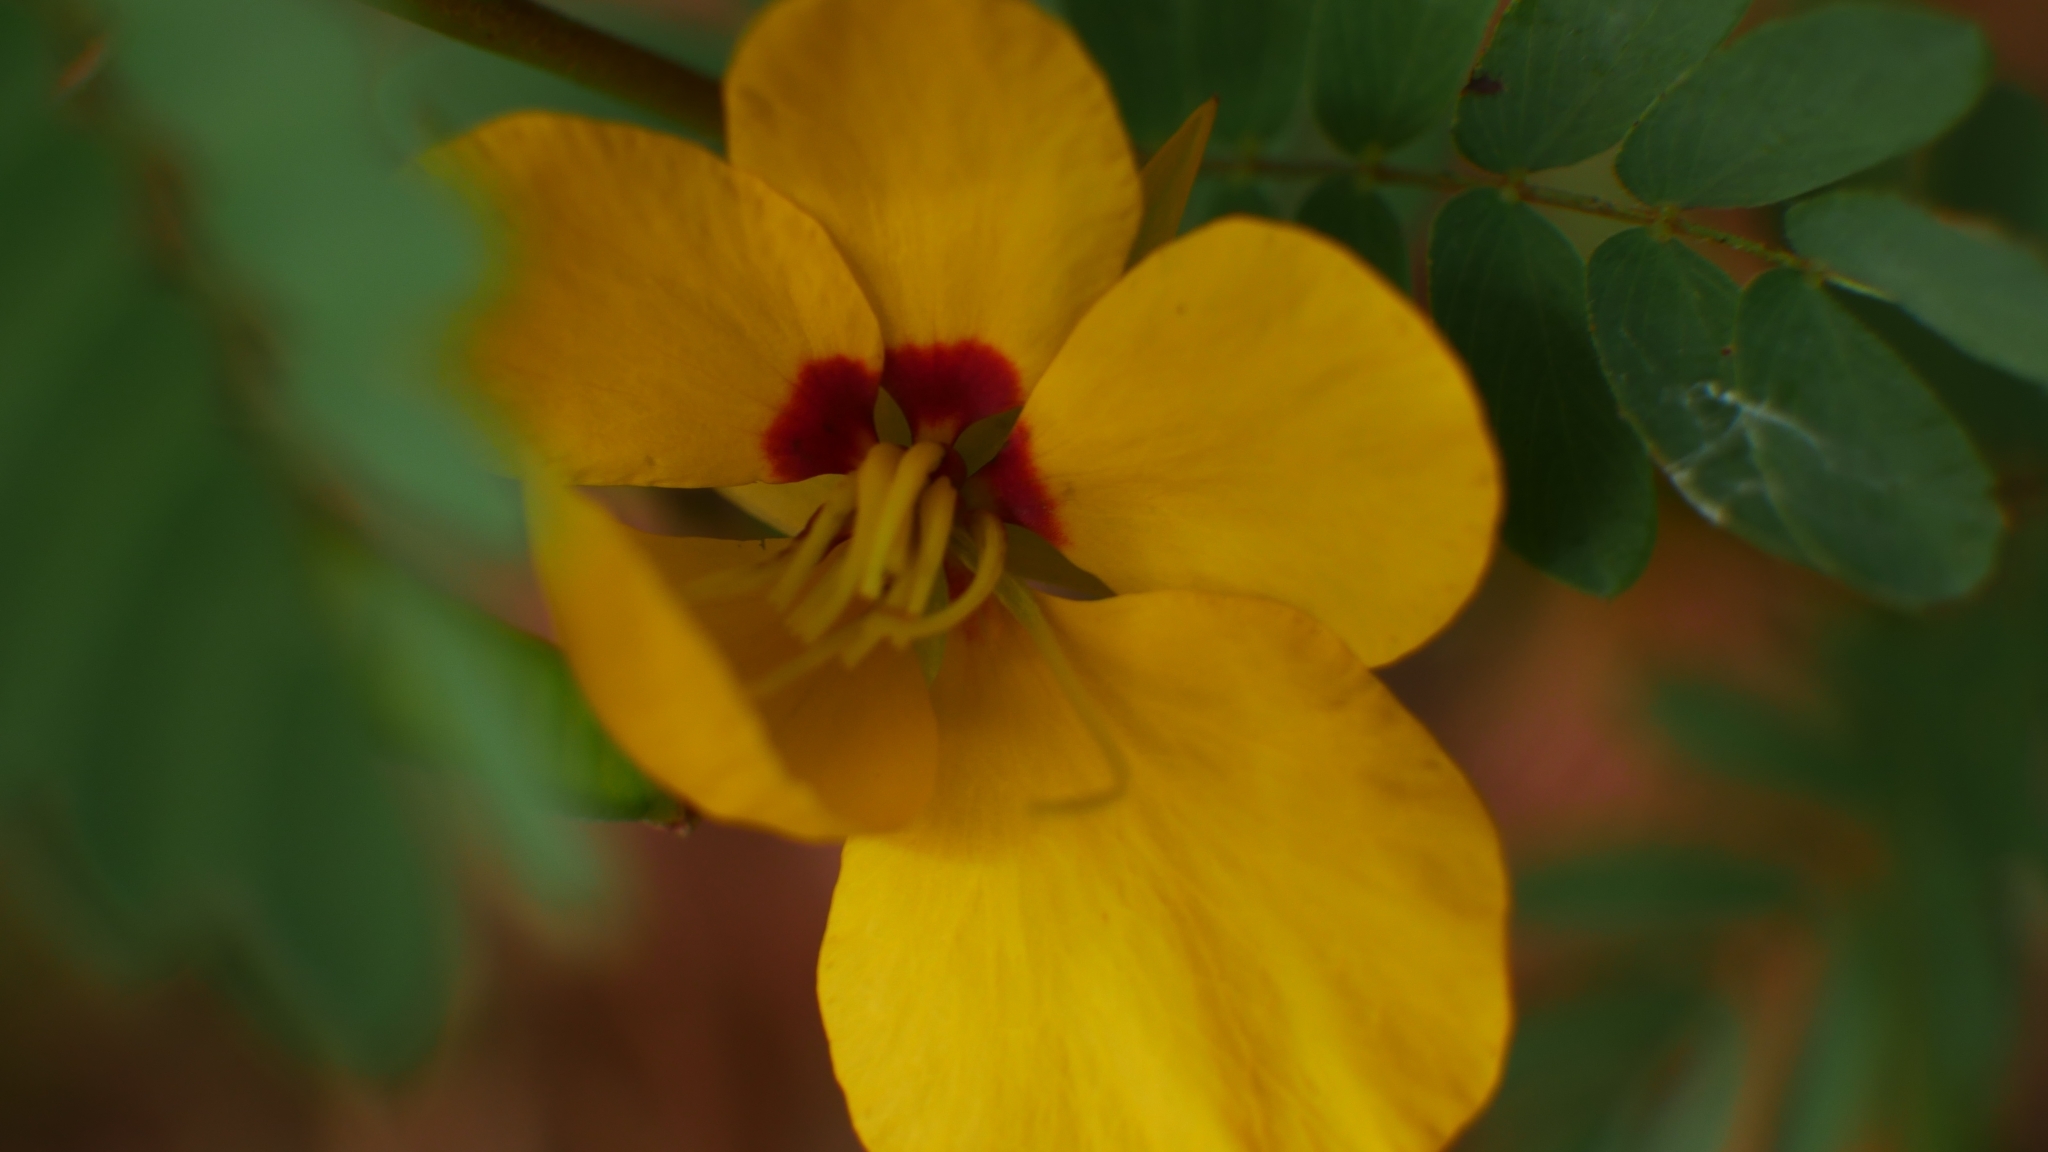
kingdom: Plantae
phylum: Tracheophyta
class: Magnoliopsida
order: Fabales
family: Fabaceae
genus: Chamaecrista
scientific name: Chamaecrista fasciculata
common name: Golden cassia
